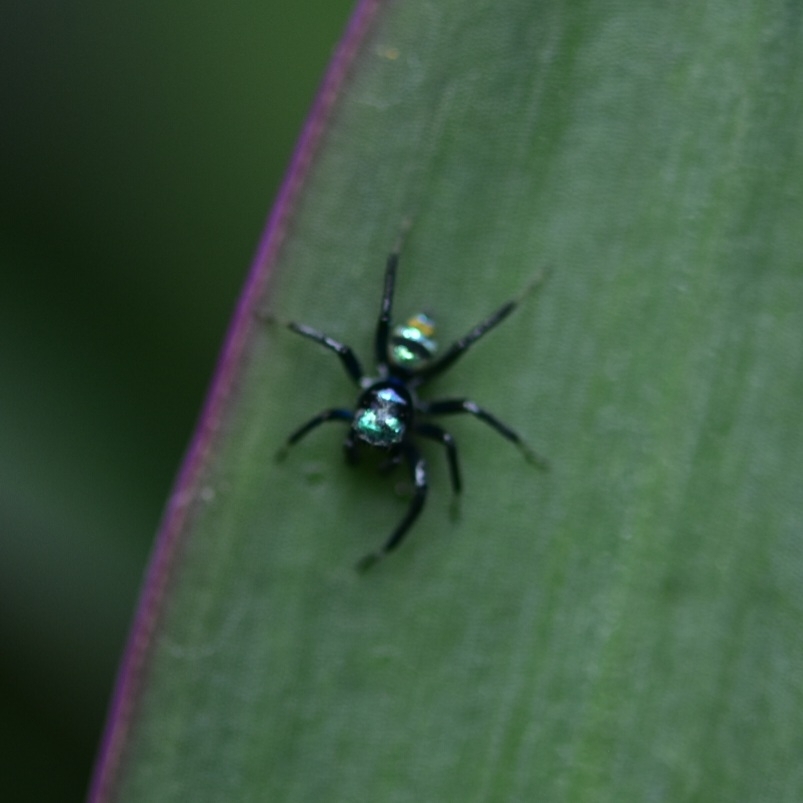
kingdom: Animalia
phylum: Arthropoda
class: Arachnida
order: Araneae
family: Salticidae
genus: Phintella
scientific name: Phintella vittata
